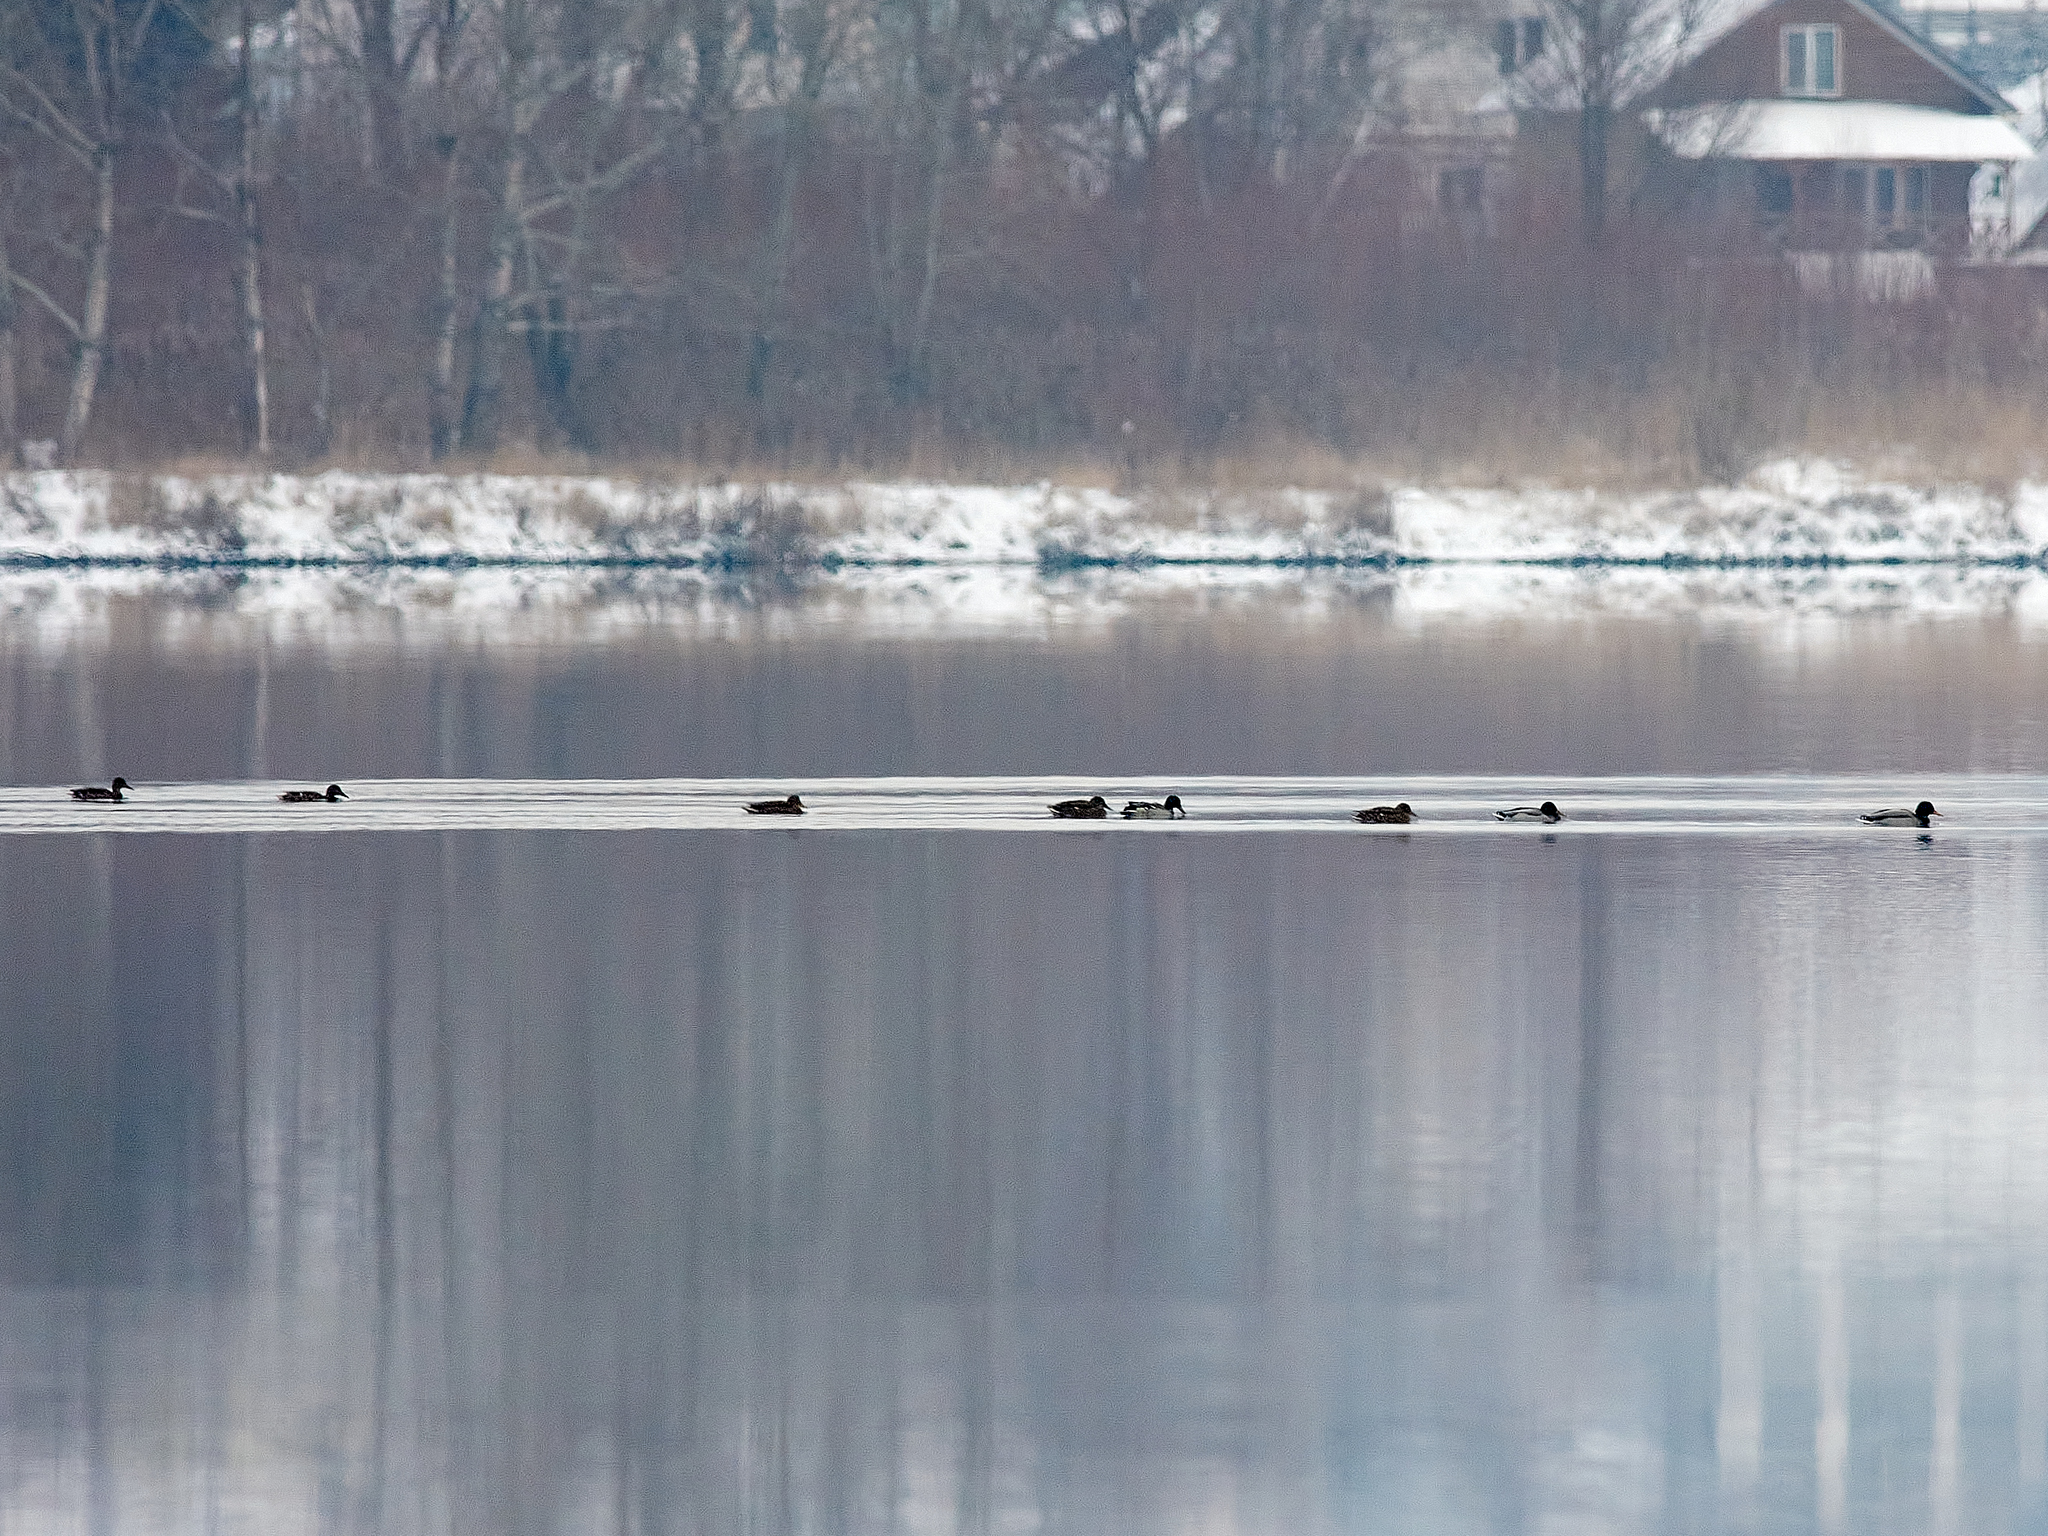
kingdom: Animalia
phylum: Chordata
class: Aves
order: Anseriformes
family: Anatidae
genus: Anas
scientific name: Anas platyrhynchos
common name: Mallard
